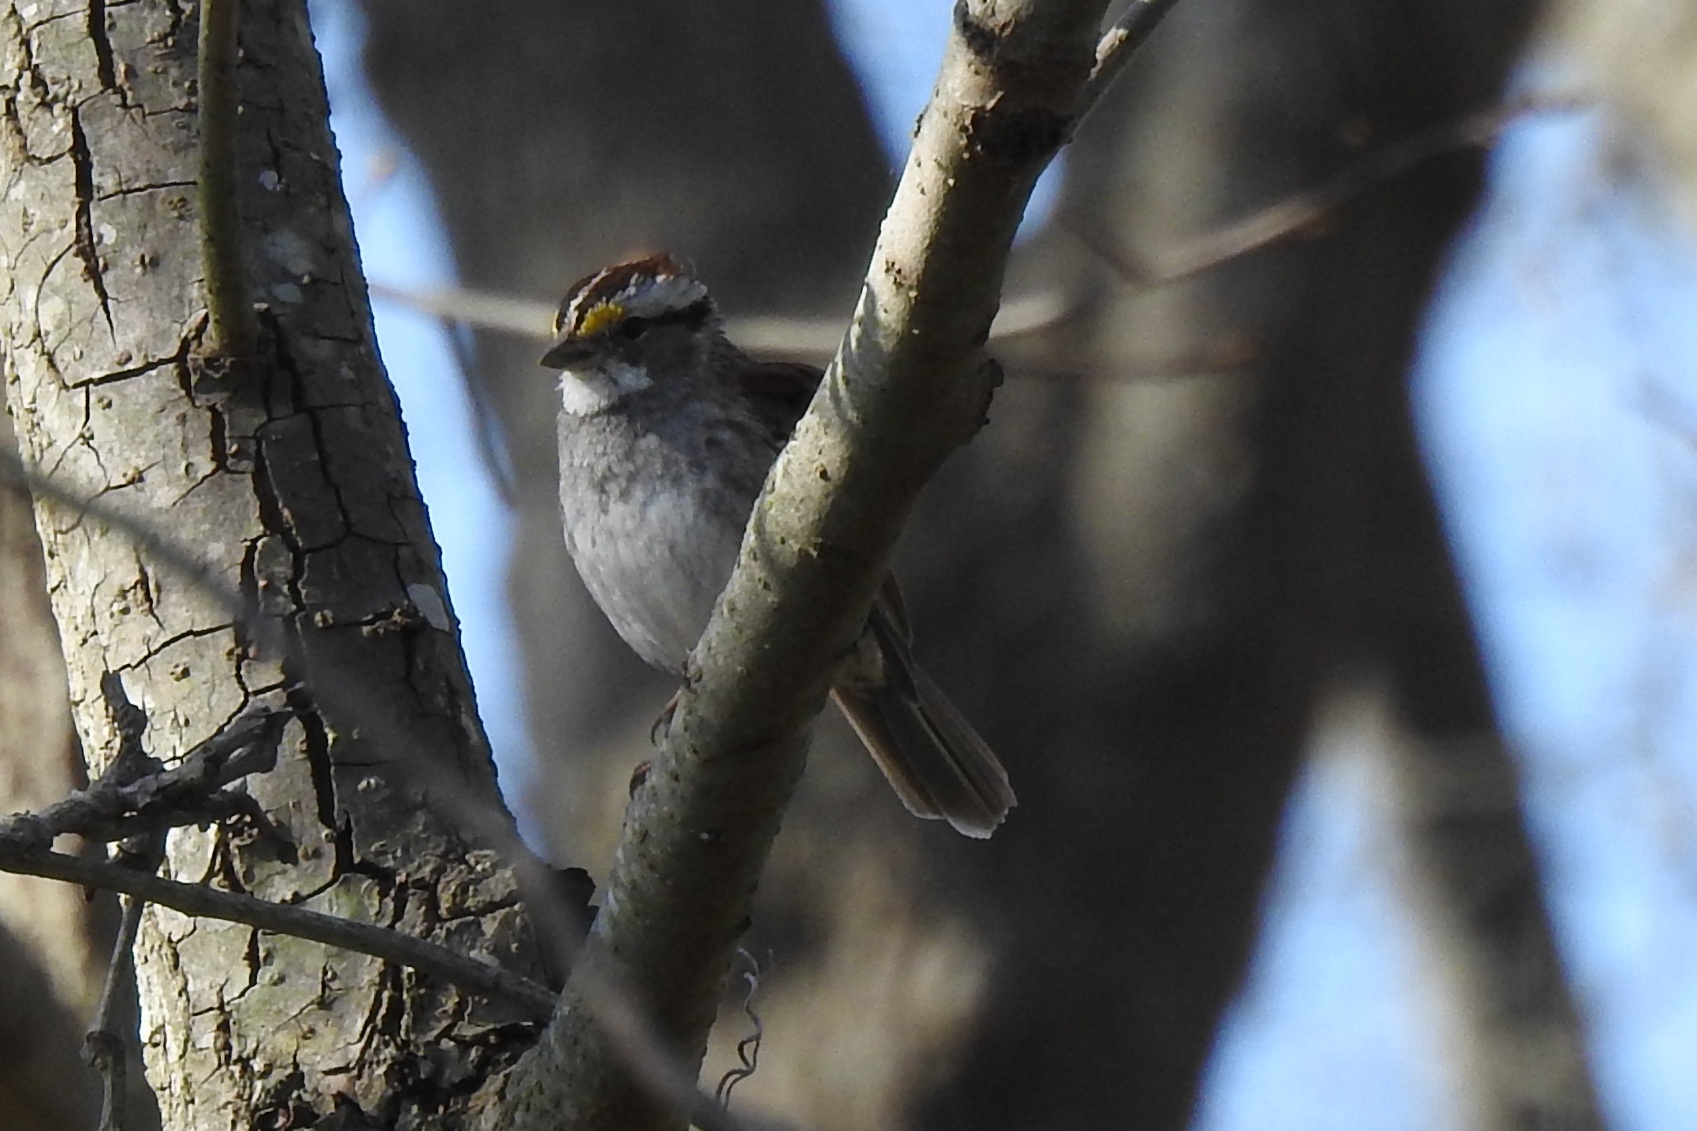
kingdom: Animalia
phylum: Chordata
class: Aves
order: Passeriformes
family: Passerellidae
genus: Zonotrichia
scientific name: Zonotrichia albicollis
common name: White-throated sparrow
